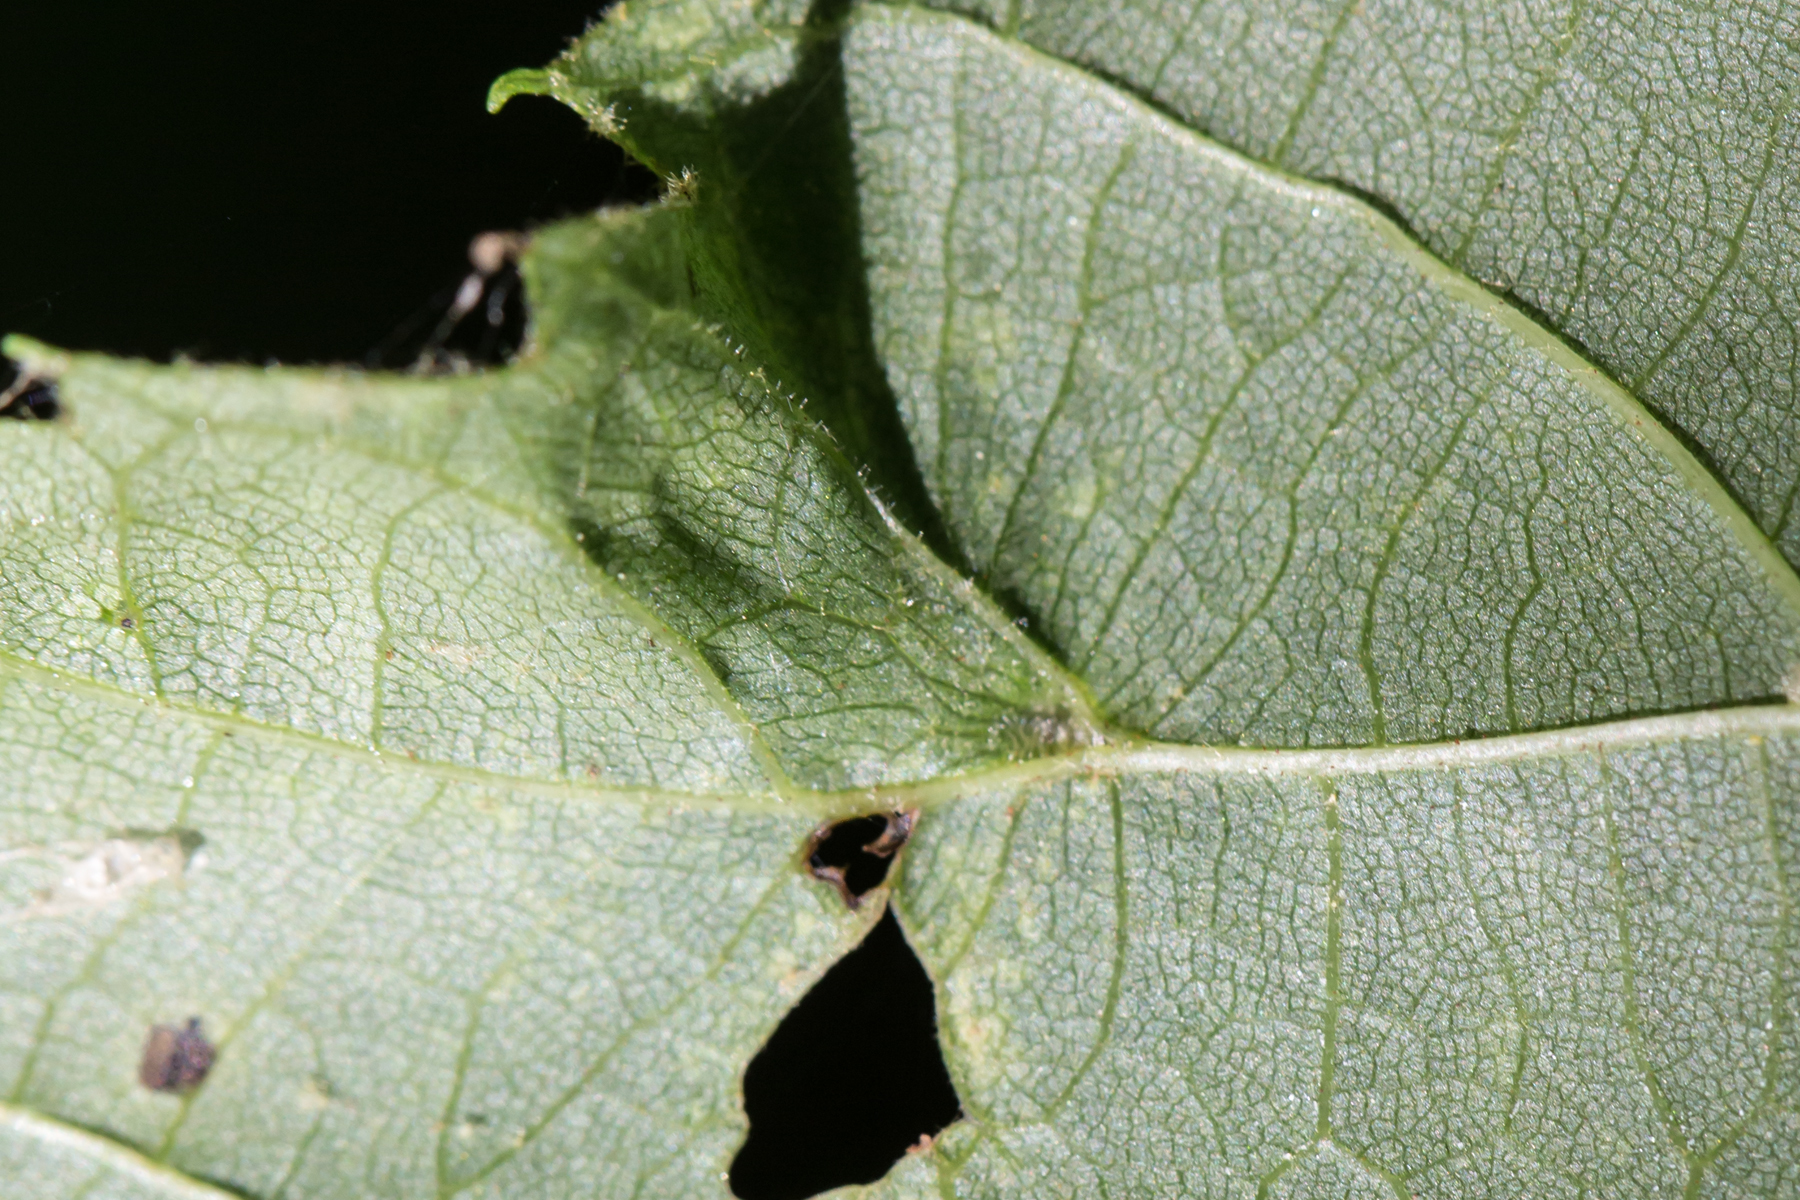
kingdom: Animalia
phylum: Arthropoda
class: Arachnida
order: Trombidiformes
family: Eriophyidae
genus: Eriophyes
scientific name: Eriophyes tiliae
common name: Red nail gall mite
